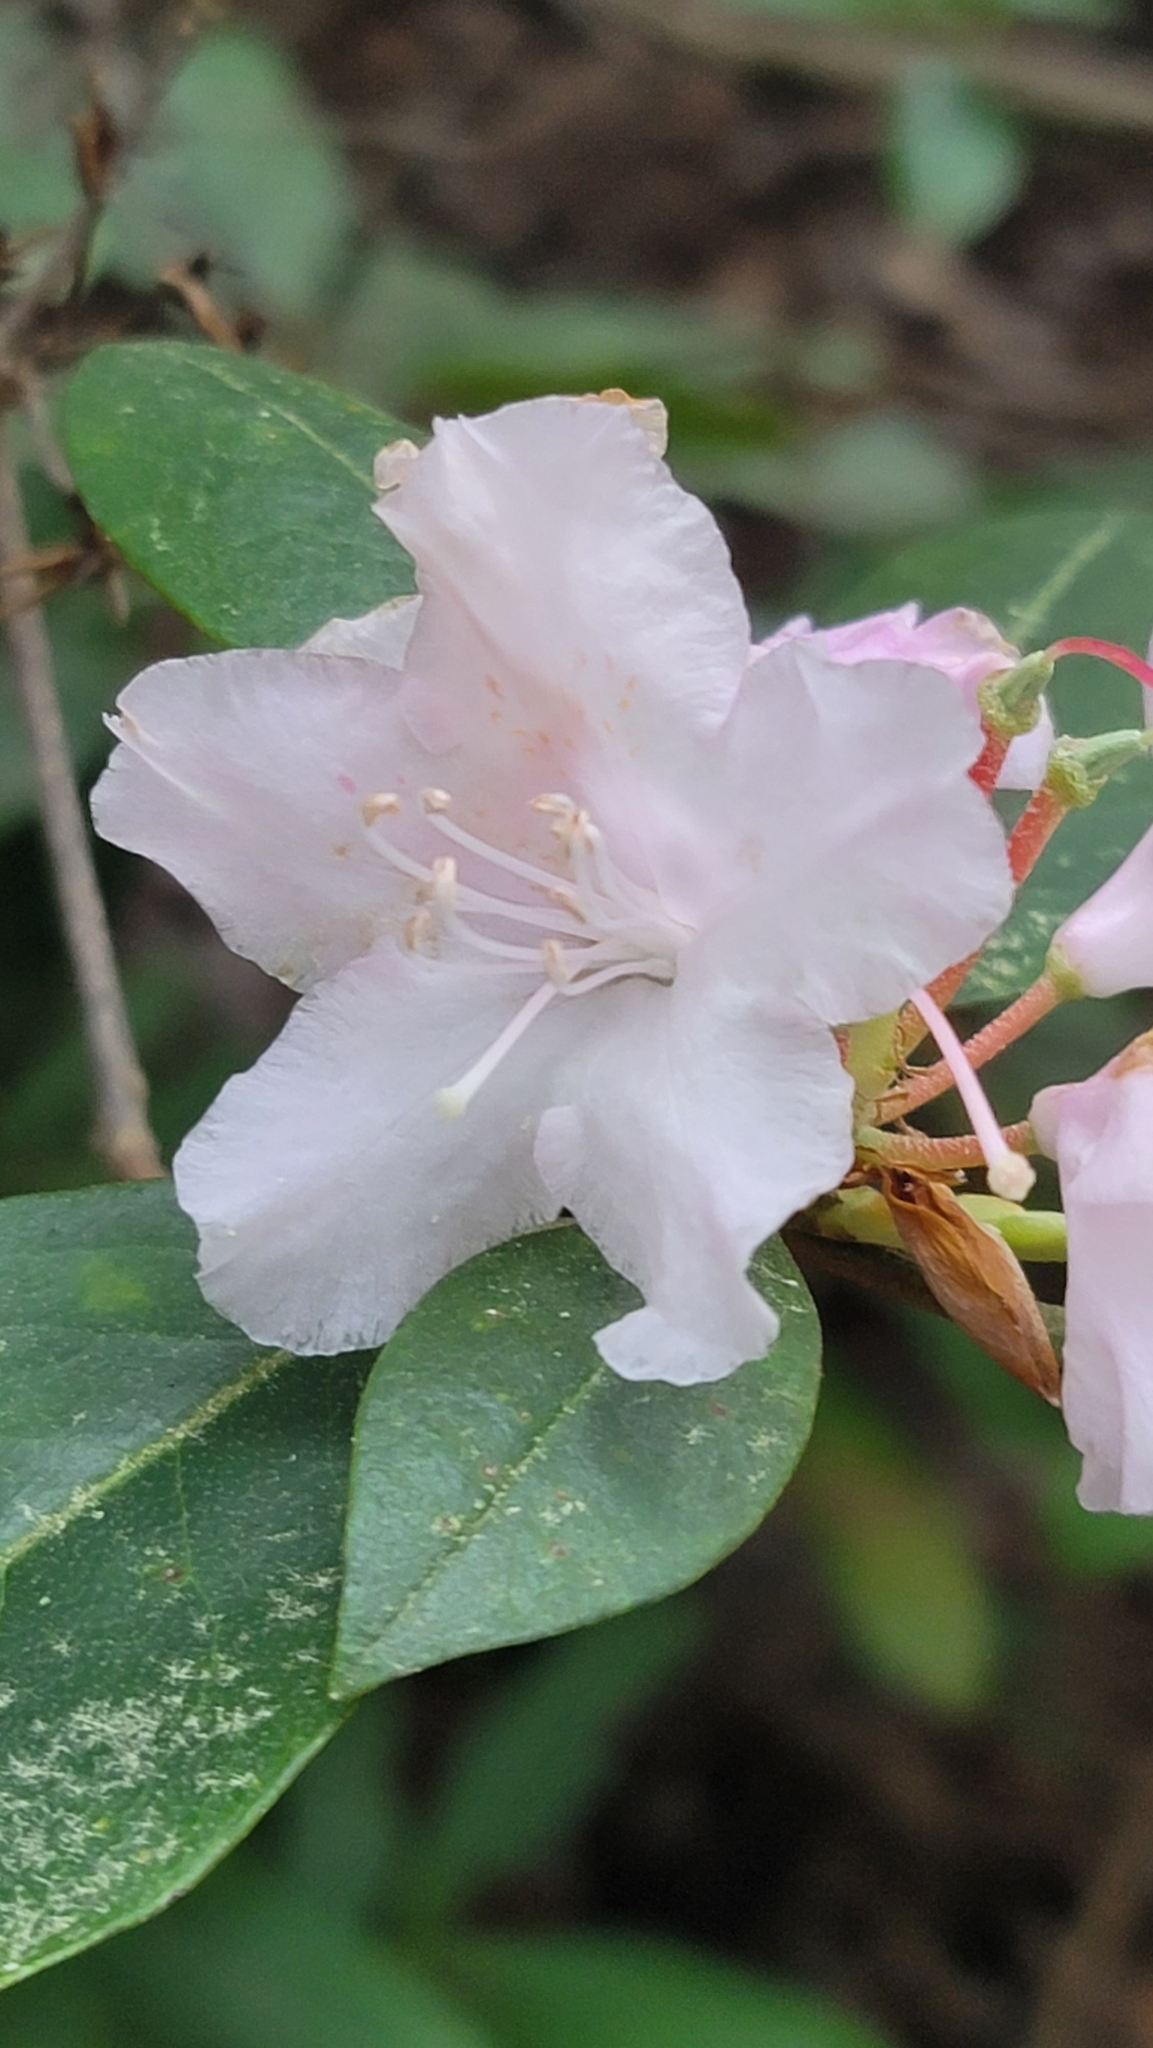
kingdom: Plantae
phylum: Tracheophyta
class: Magnoliopsida
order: Ericales
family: Ericaceae
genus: Rhododendron
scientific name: Rhododendron minus
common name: Piedmont rhododendron
